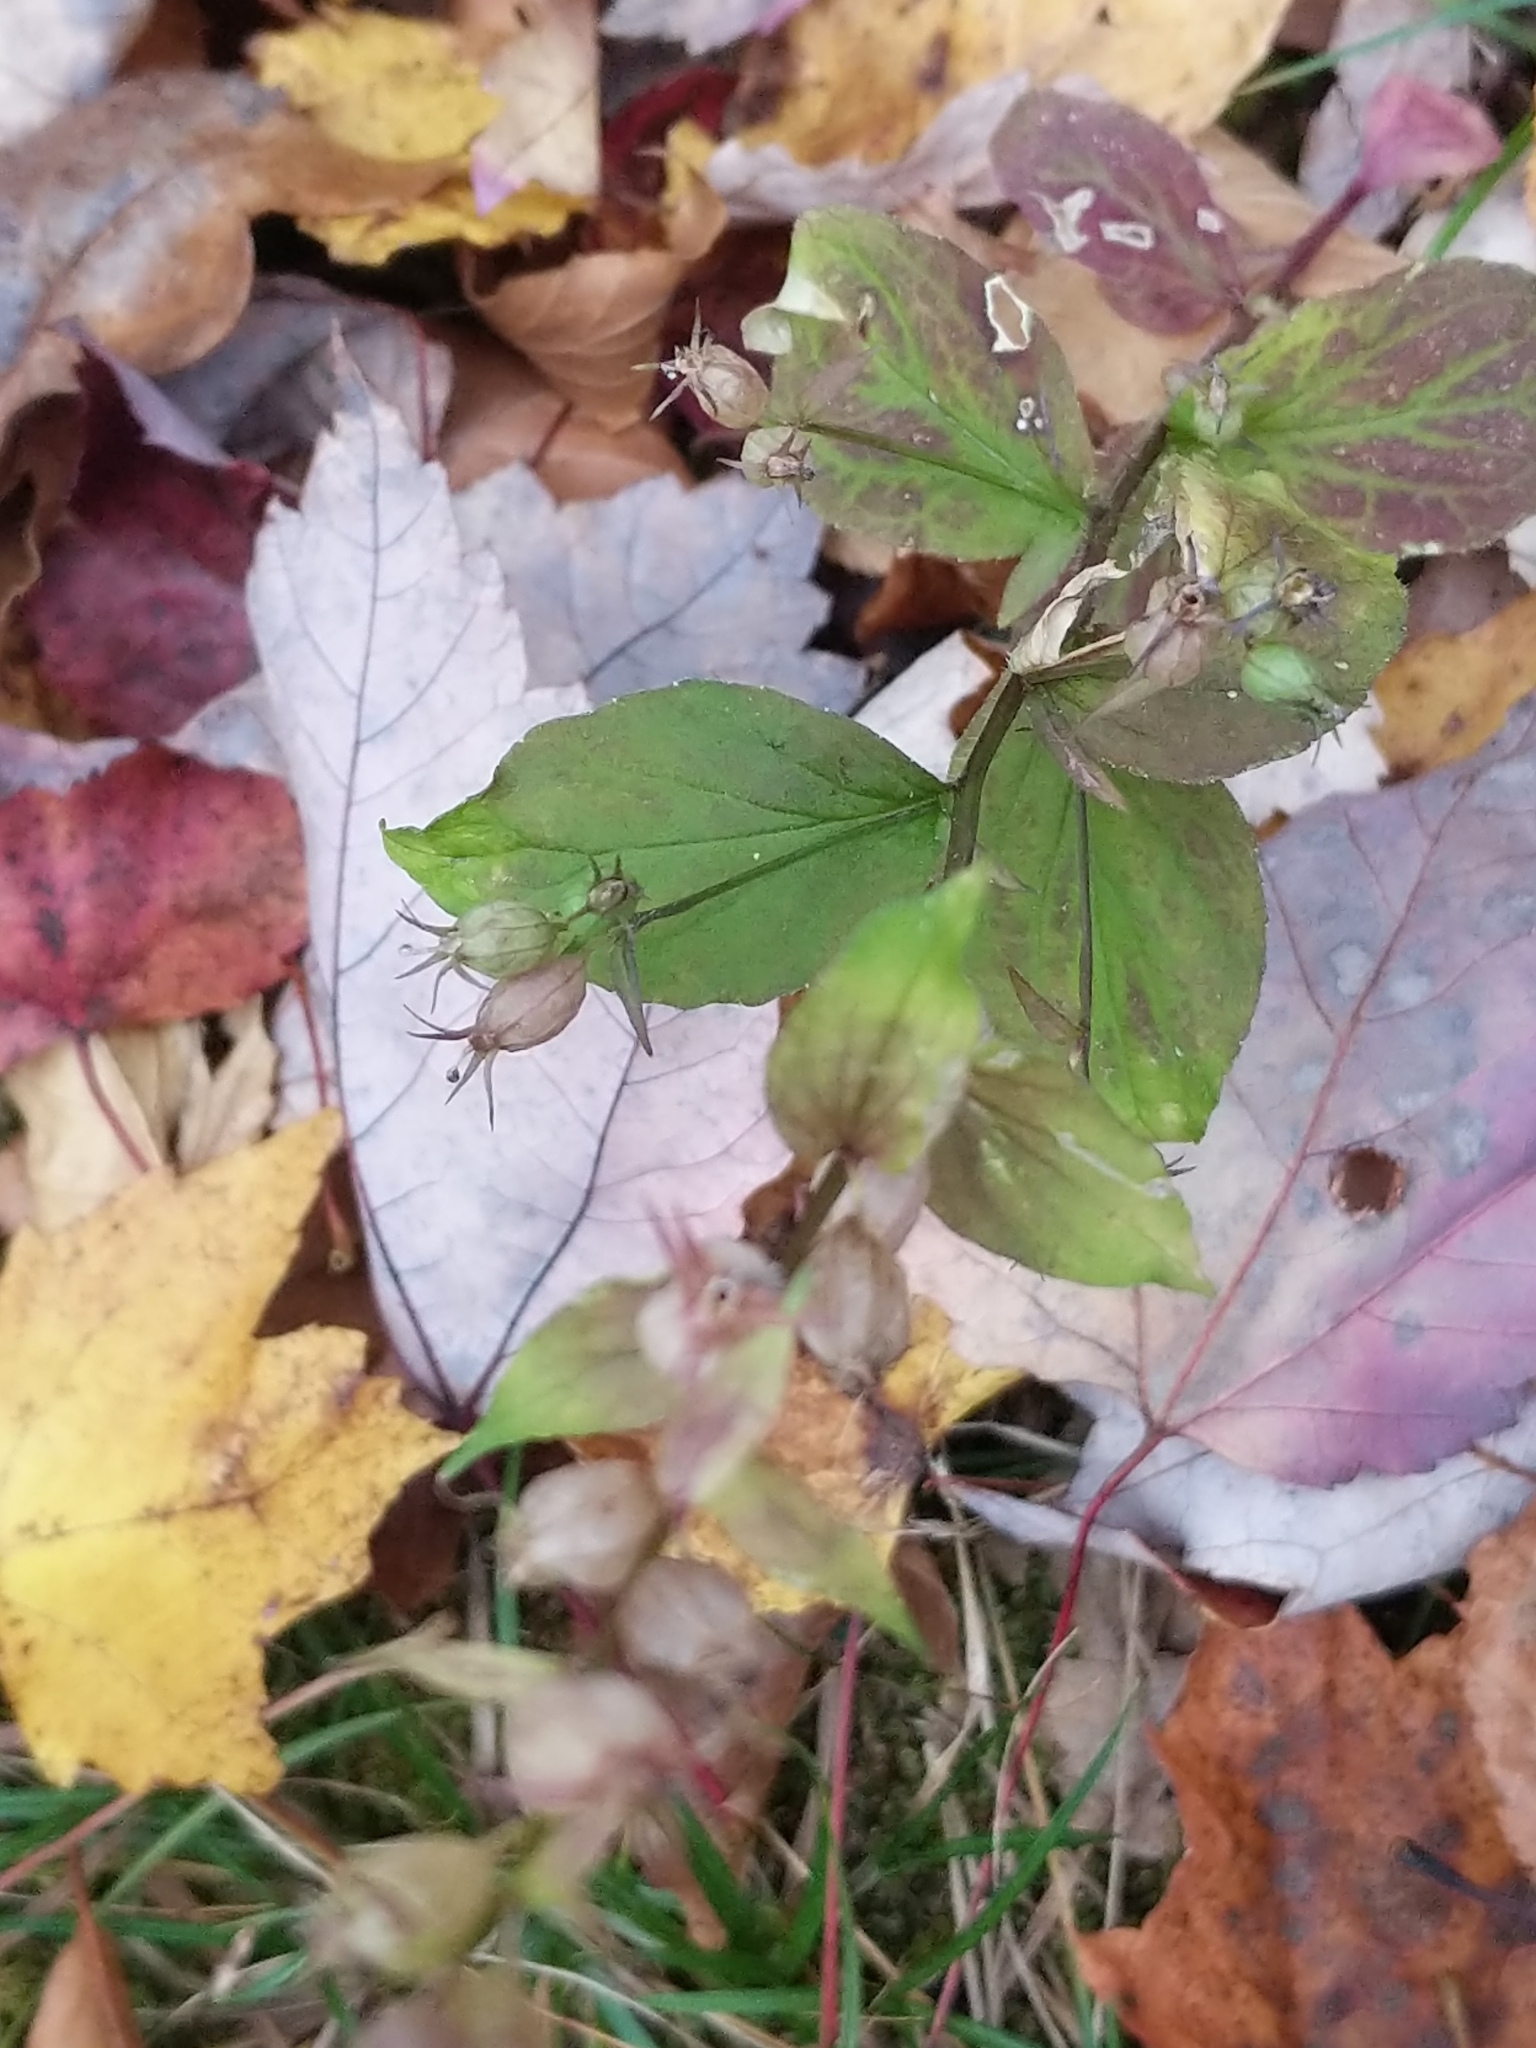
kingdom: Plantae
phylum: Tracheophyta
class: Magnoliopsida
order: Asterales
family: Campanulaceae
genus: Lobelia
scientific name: Lobelia inflata
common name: Indian tobacco
